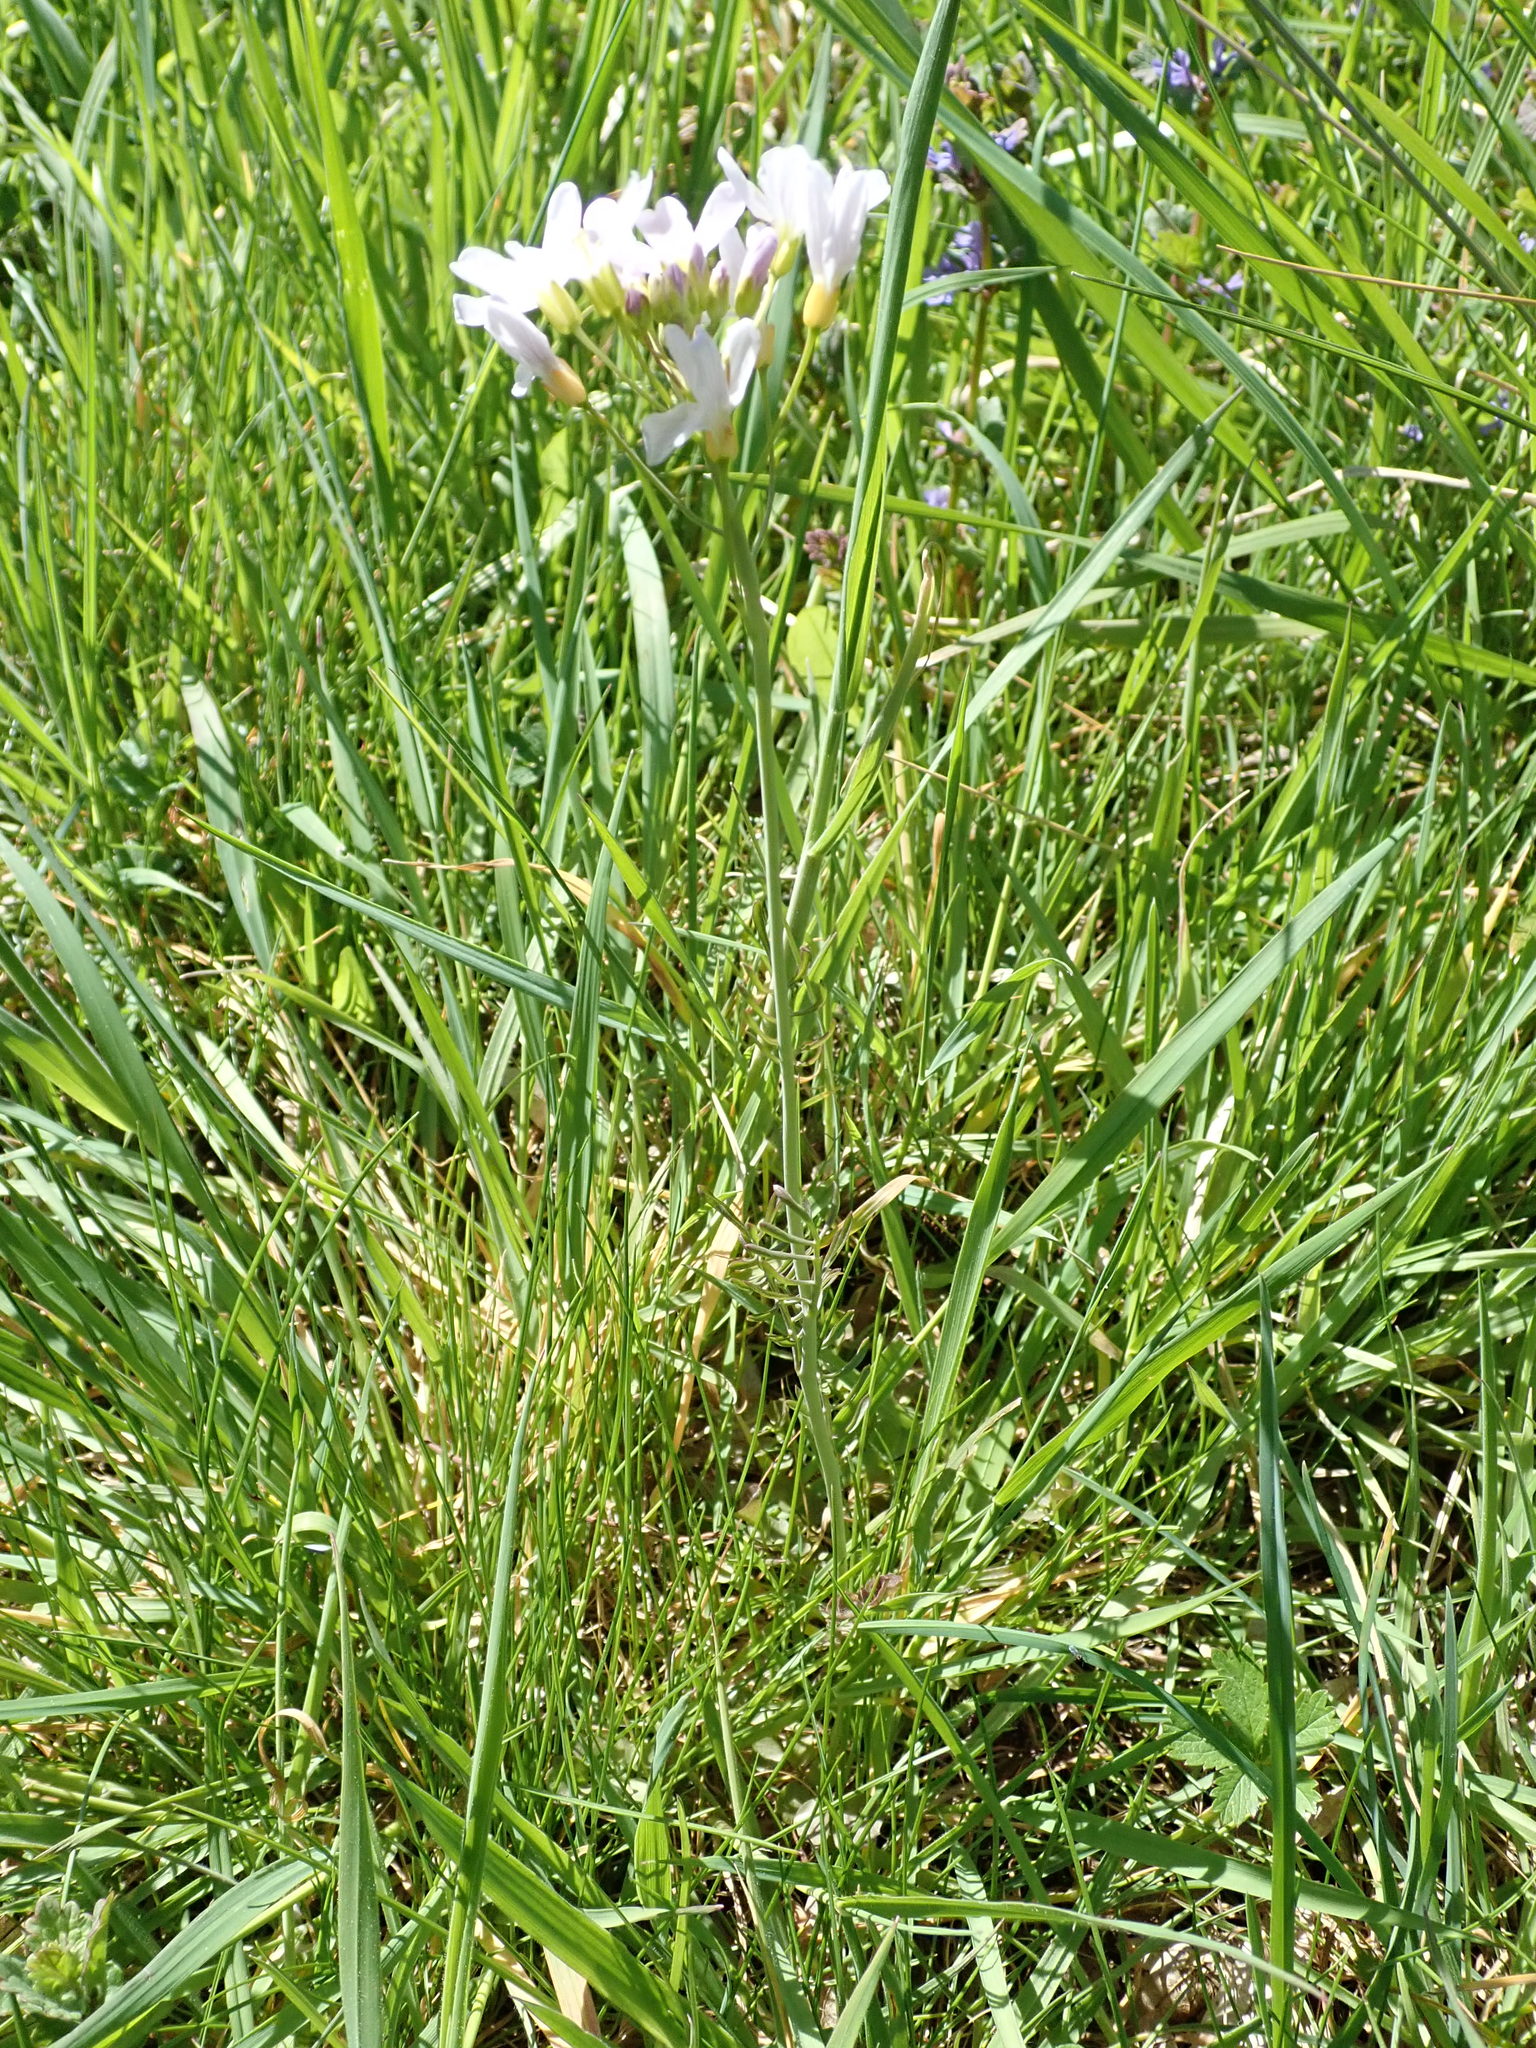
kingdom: Plantae
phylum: Tracheophyta
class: Magnoliopsida
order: Brassicales
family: Brassicaceae
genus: Cardamine
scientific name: Cardamine pratensis
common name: Cuckoo flower
